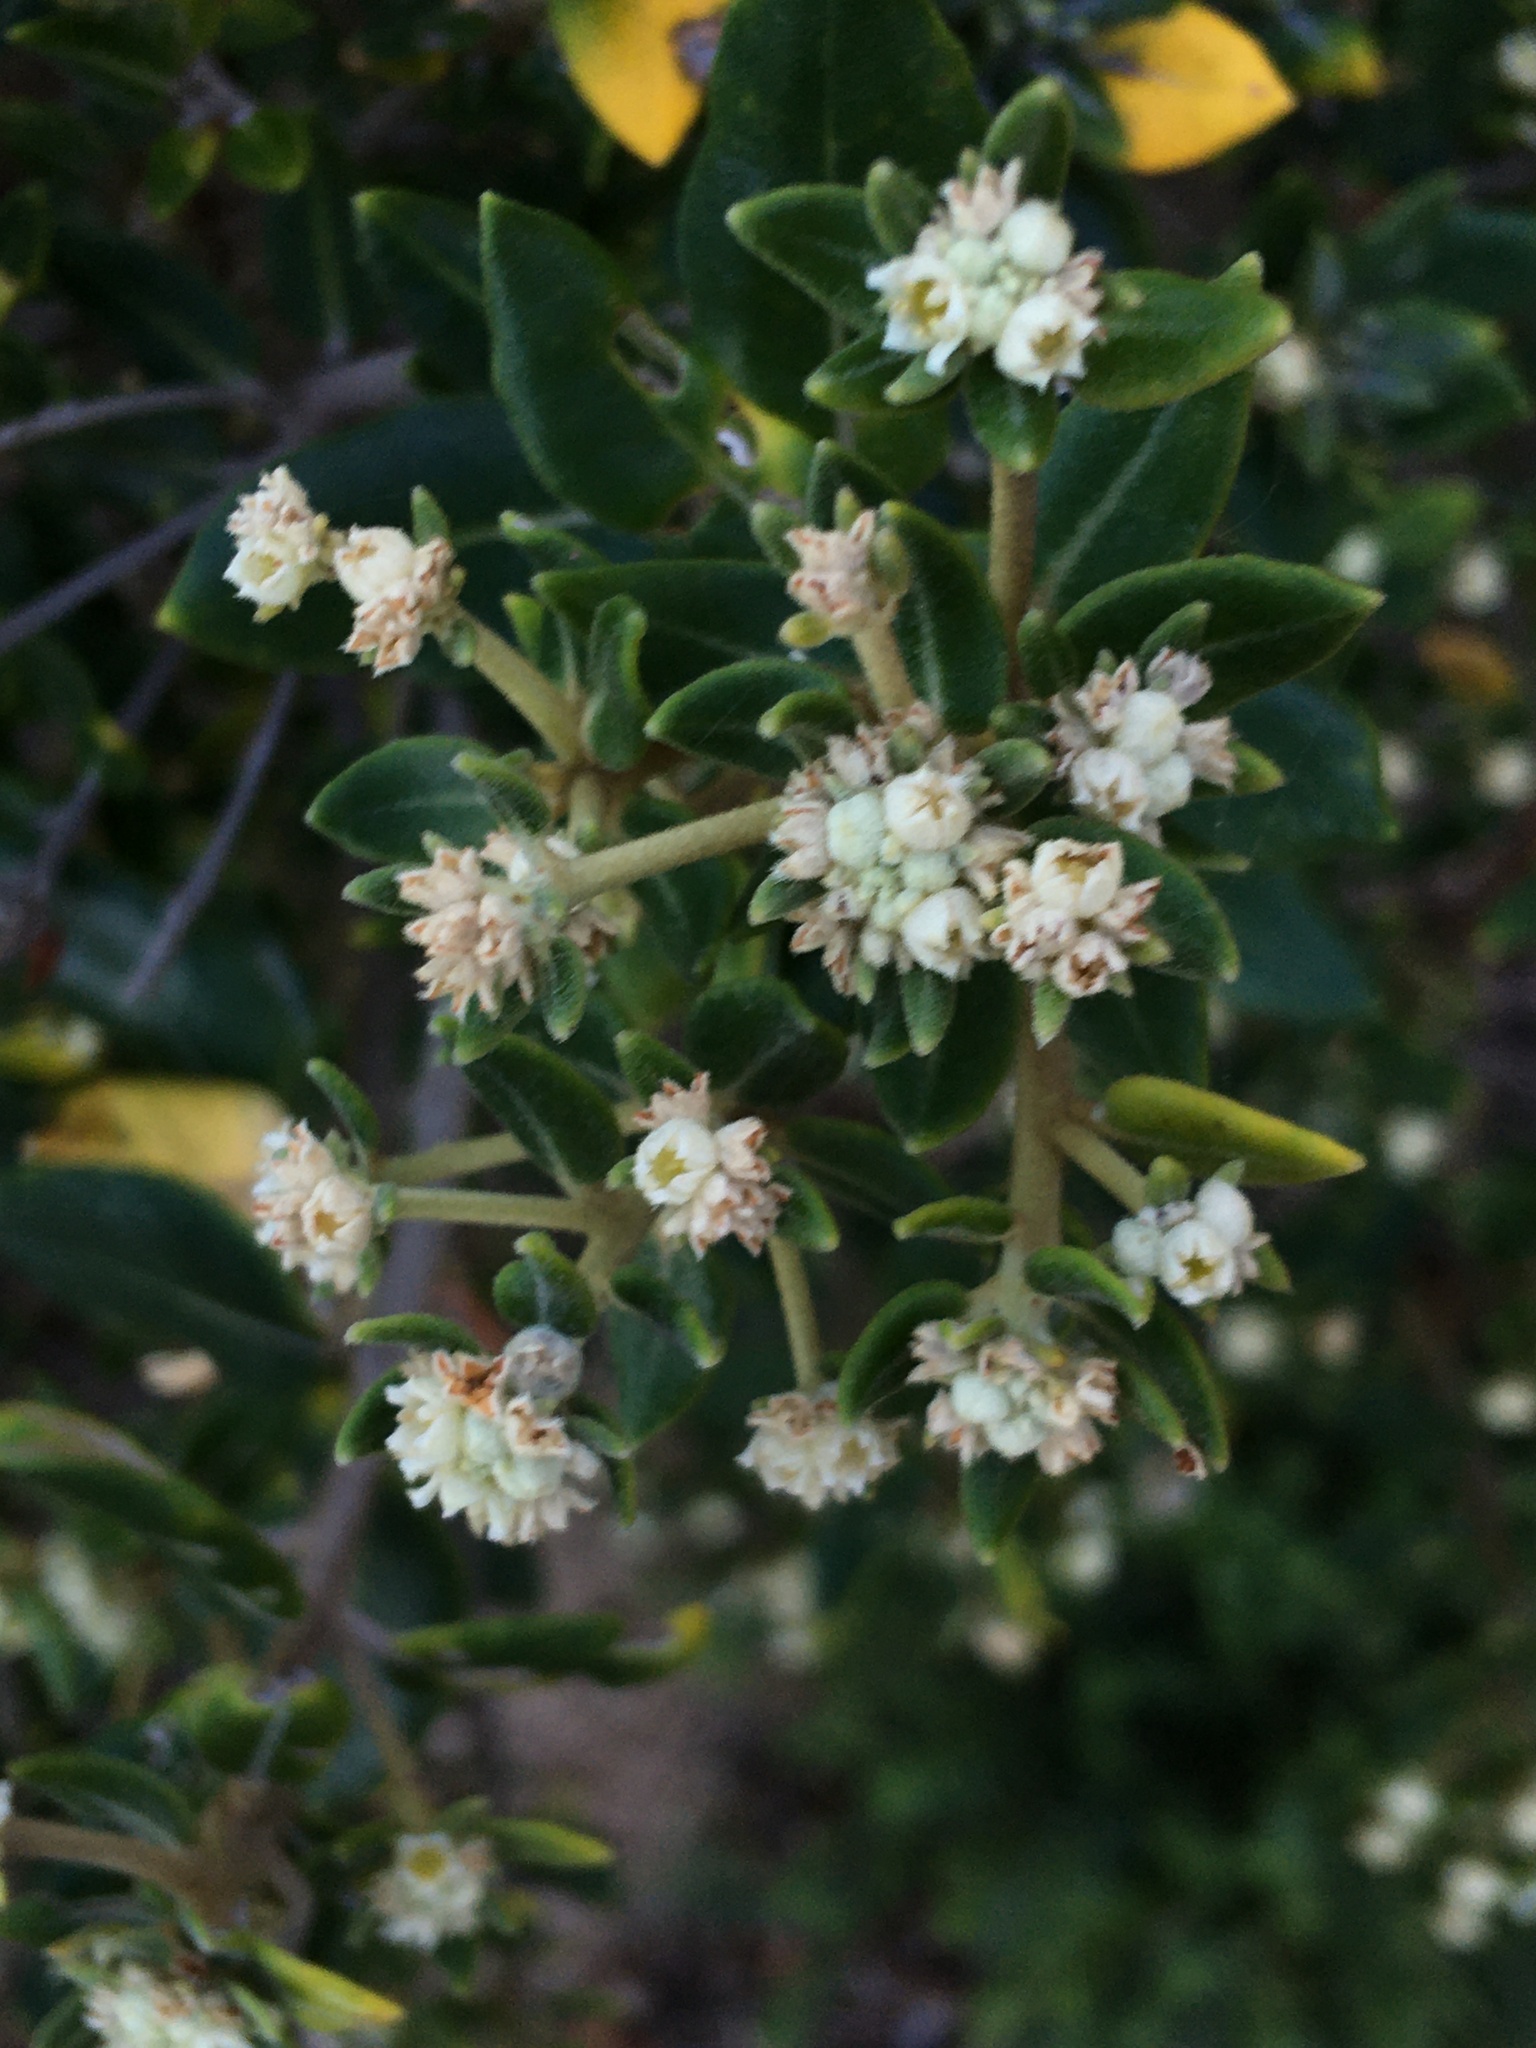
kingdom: Plantae
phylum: Tracheophyta
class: Magnoliopsida
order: Rosales
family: Rhamnaceae
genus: Phylica
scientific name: Phylica buxifolia
